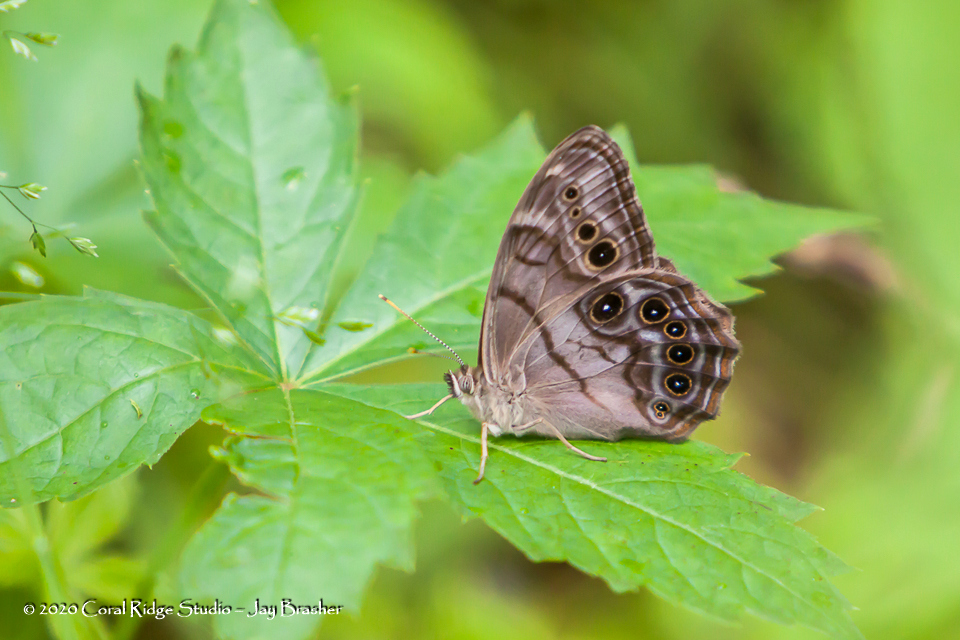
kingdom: Animalia
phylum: Arthropoda
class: Insecta
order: Lepidoptera
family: Nymphalidae
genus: Lethe
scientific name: Lethe anthedon
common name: Northern pearly-eye
